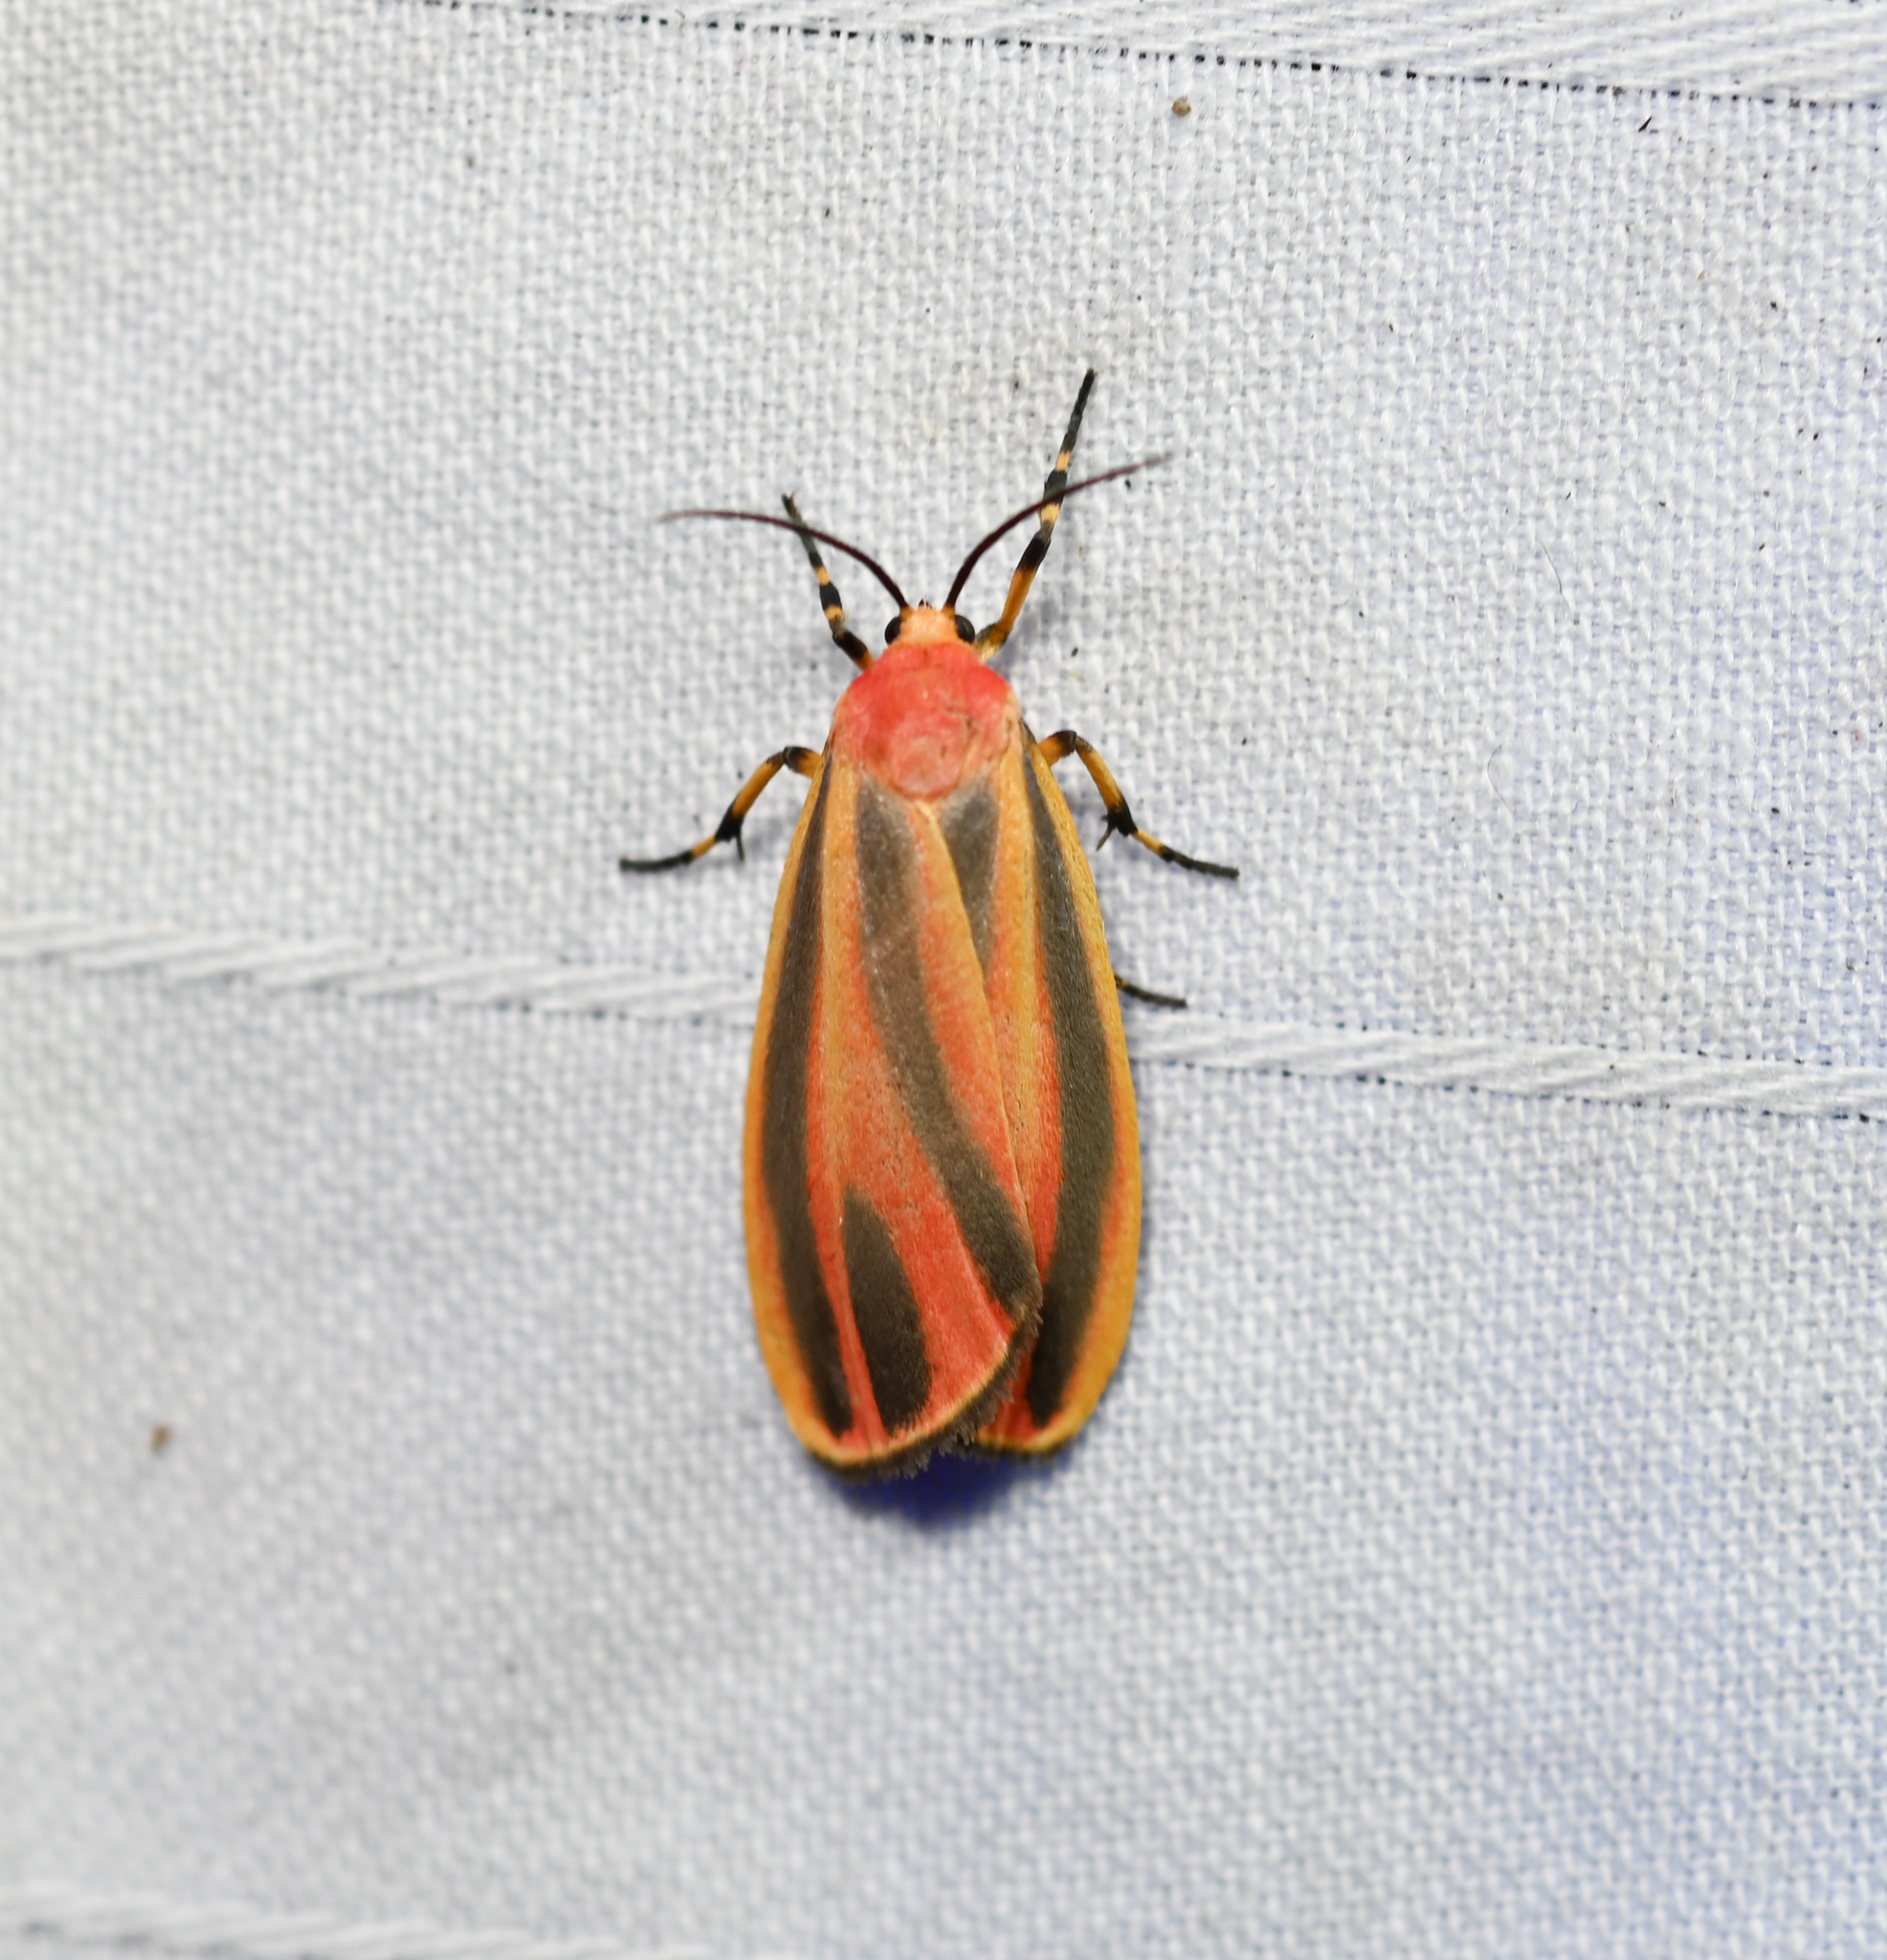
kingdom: Animalia
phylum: Arthropoda
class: Insecta
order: Lepidoptera
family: Erebidae
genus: Hypoprepia
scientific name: Hypoprepia fucosa
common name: Painted lichen moth
